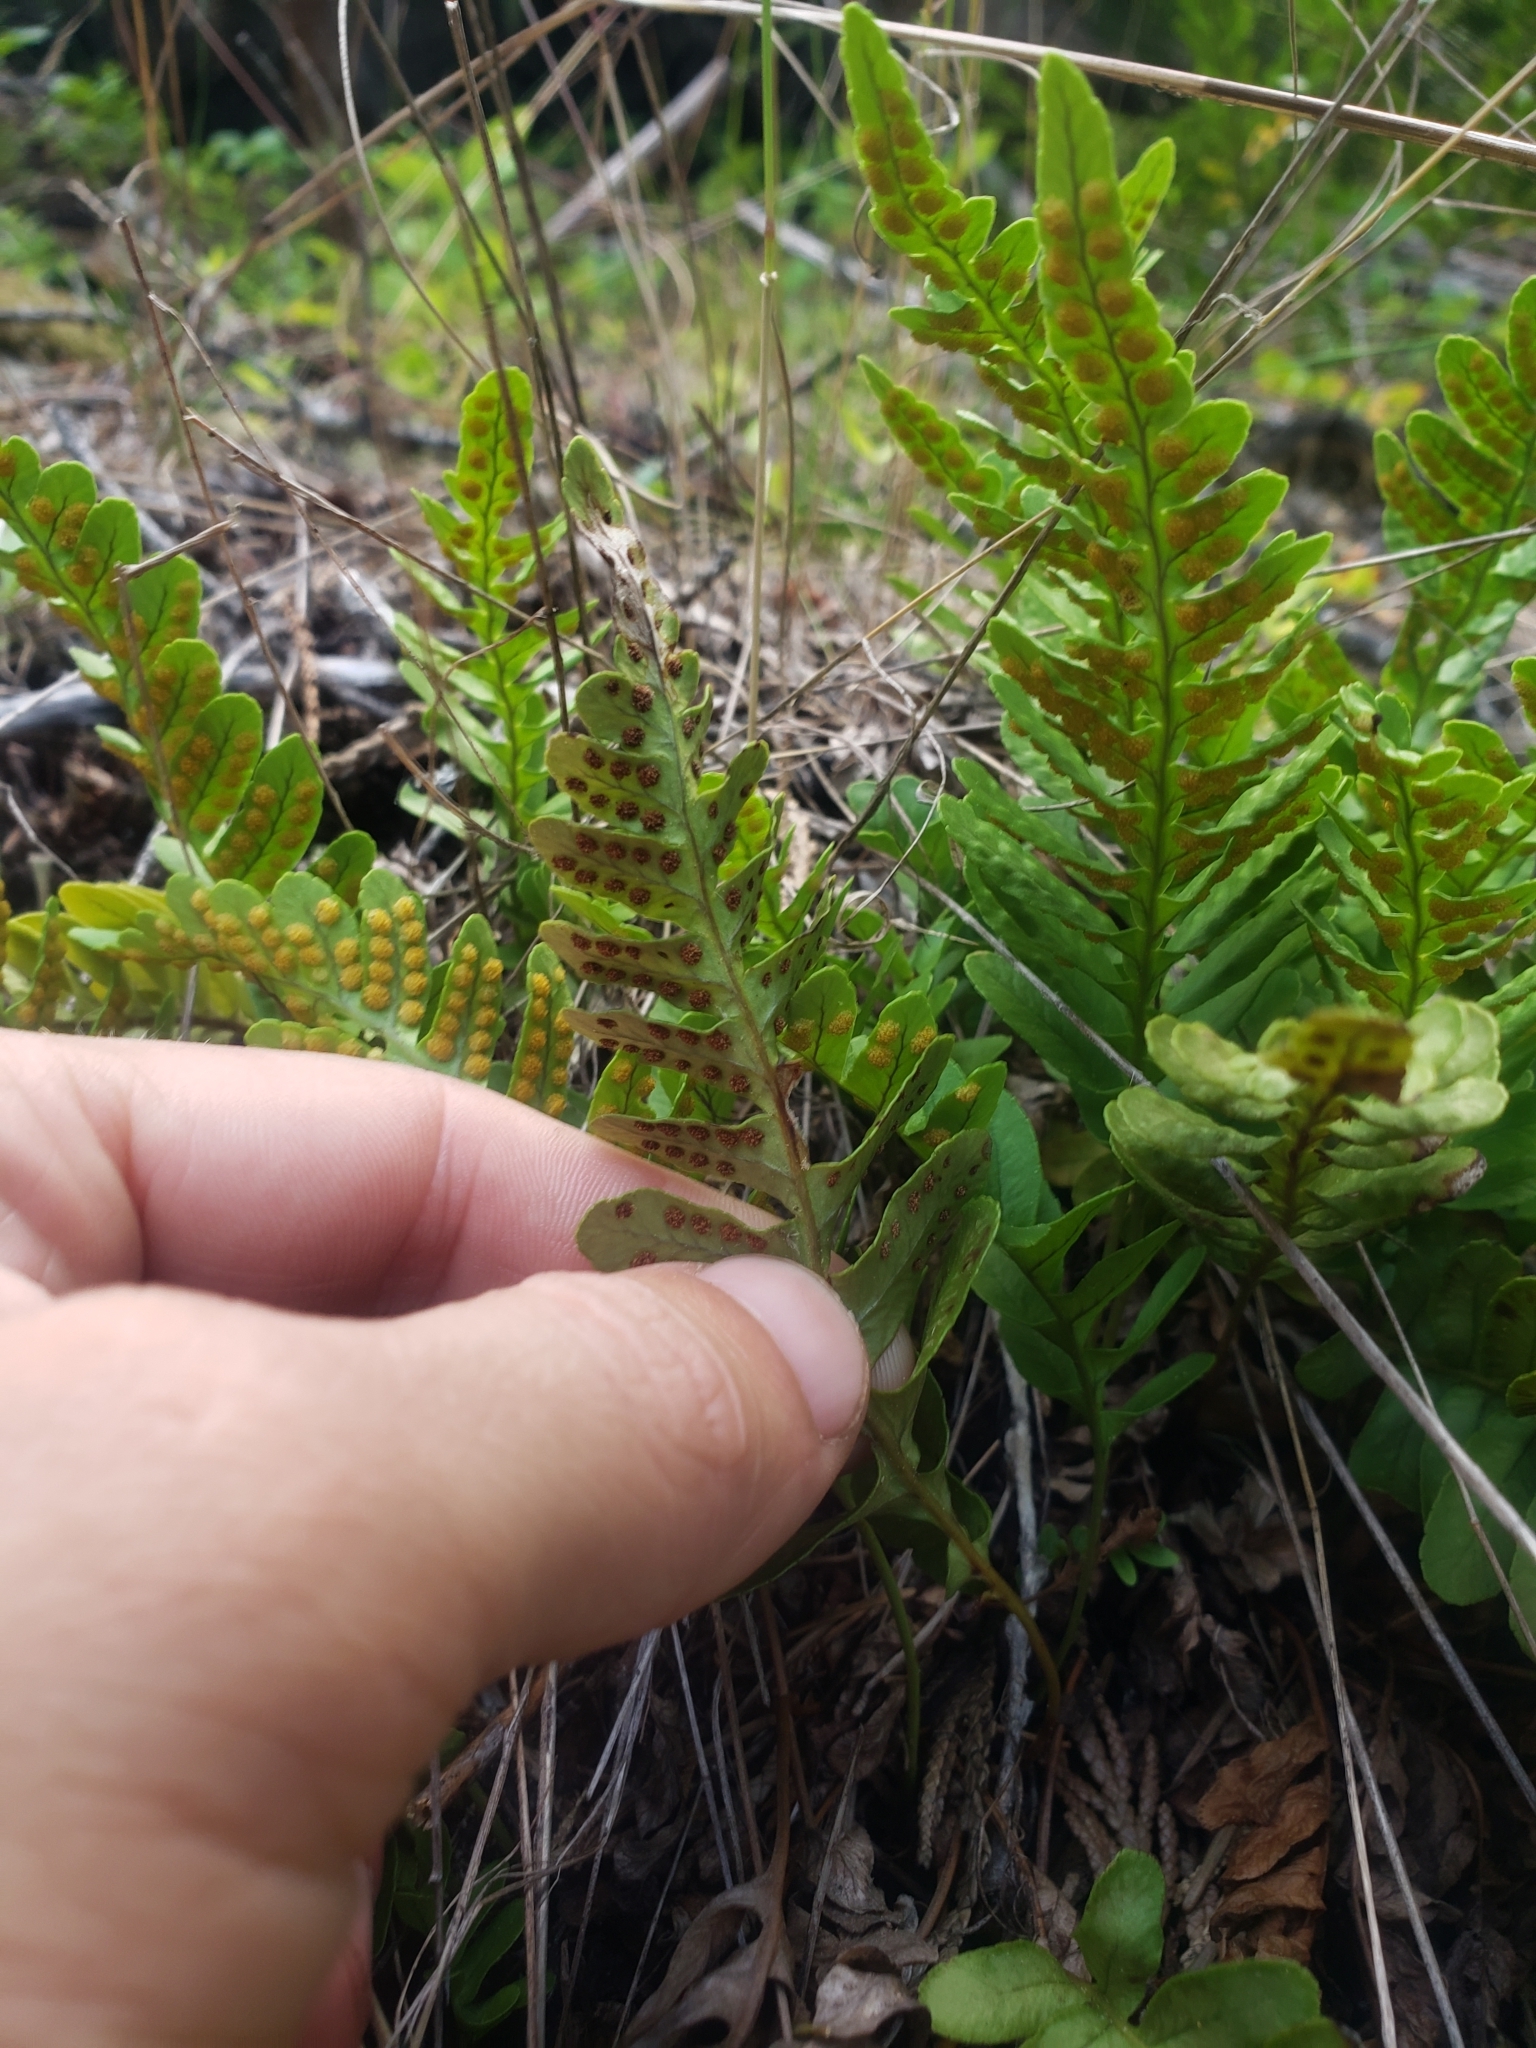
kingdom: Plantae
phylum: Tracheophyta
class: Polypodiopsida
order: Polypodiales
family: Polypodiaceae
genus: Polypodium
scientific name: Polypodium amorphum
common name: Pacific polypody
